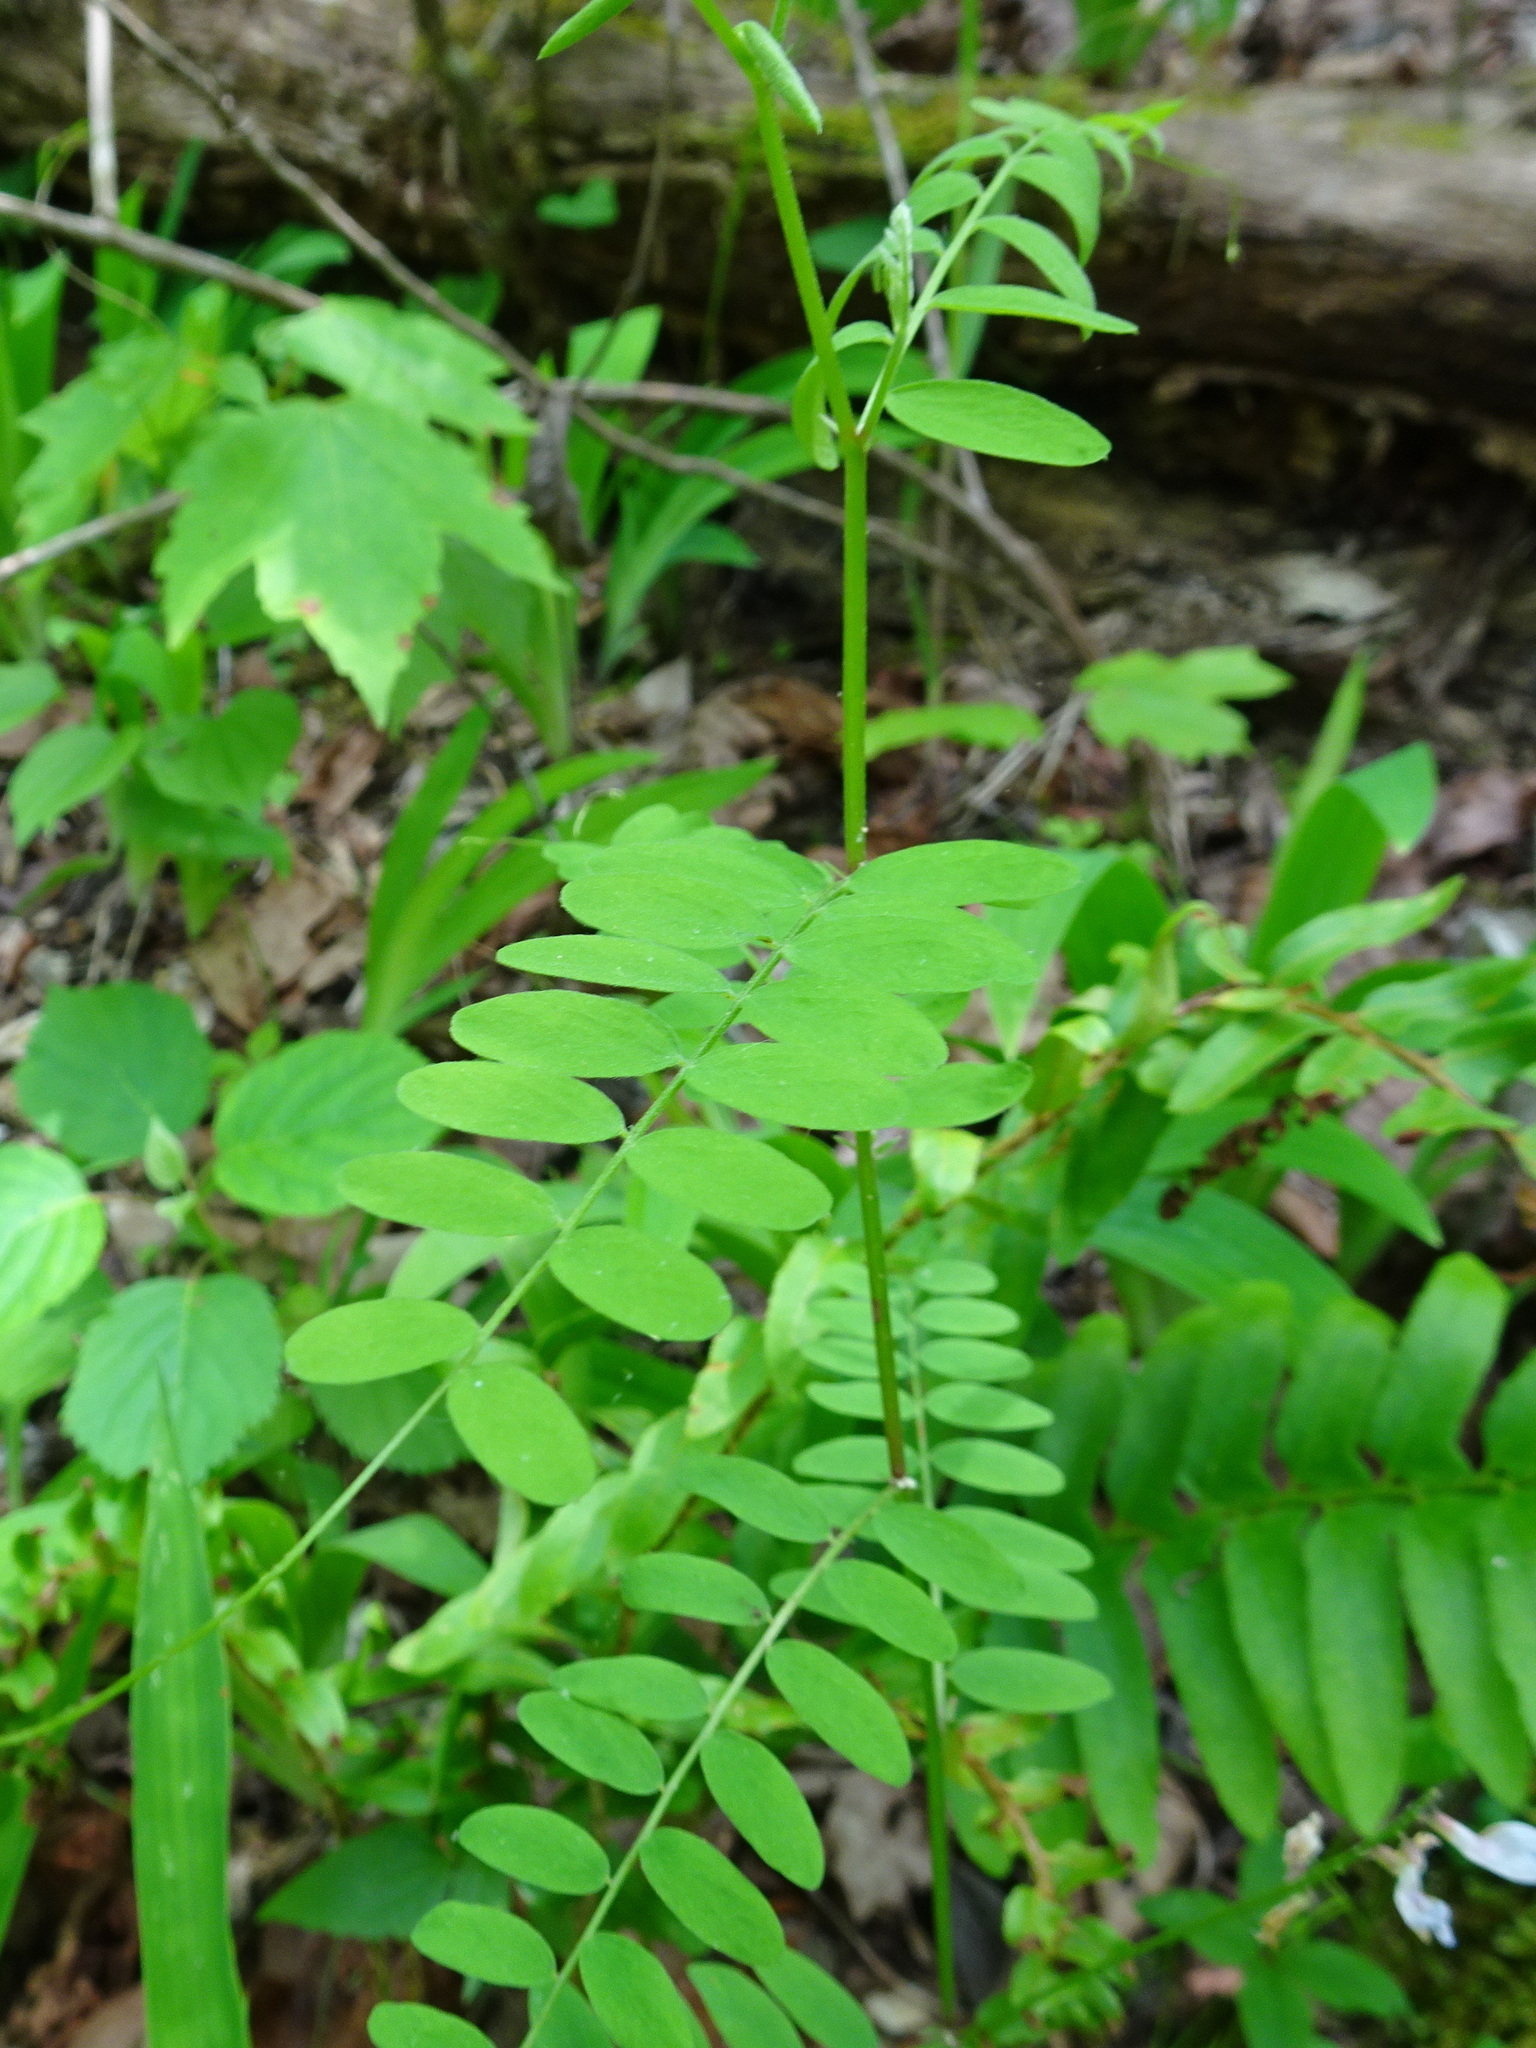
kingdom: Plantae
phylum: Tracheophyta
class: Magnoliopsida
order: Fabales
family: Fabaceae
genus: Vicia
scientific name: Vicia caroliniana
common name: Carolina vetch
